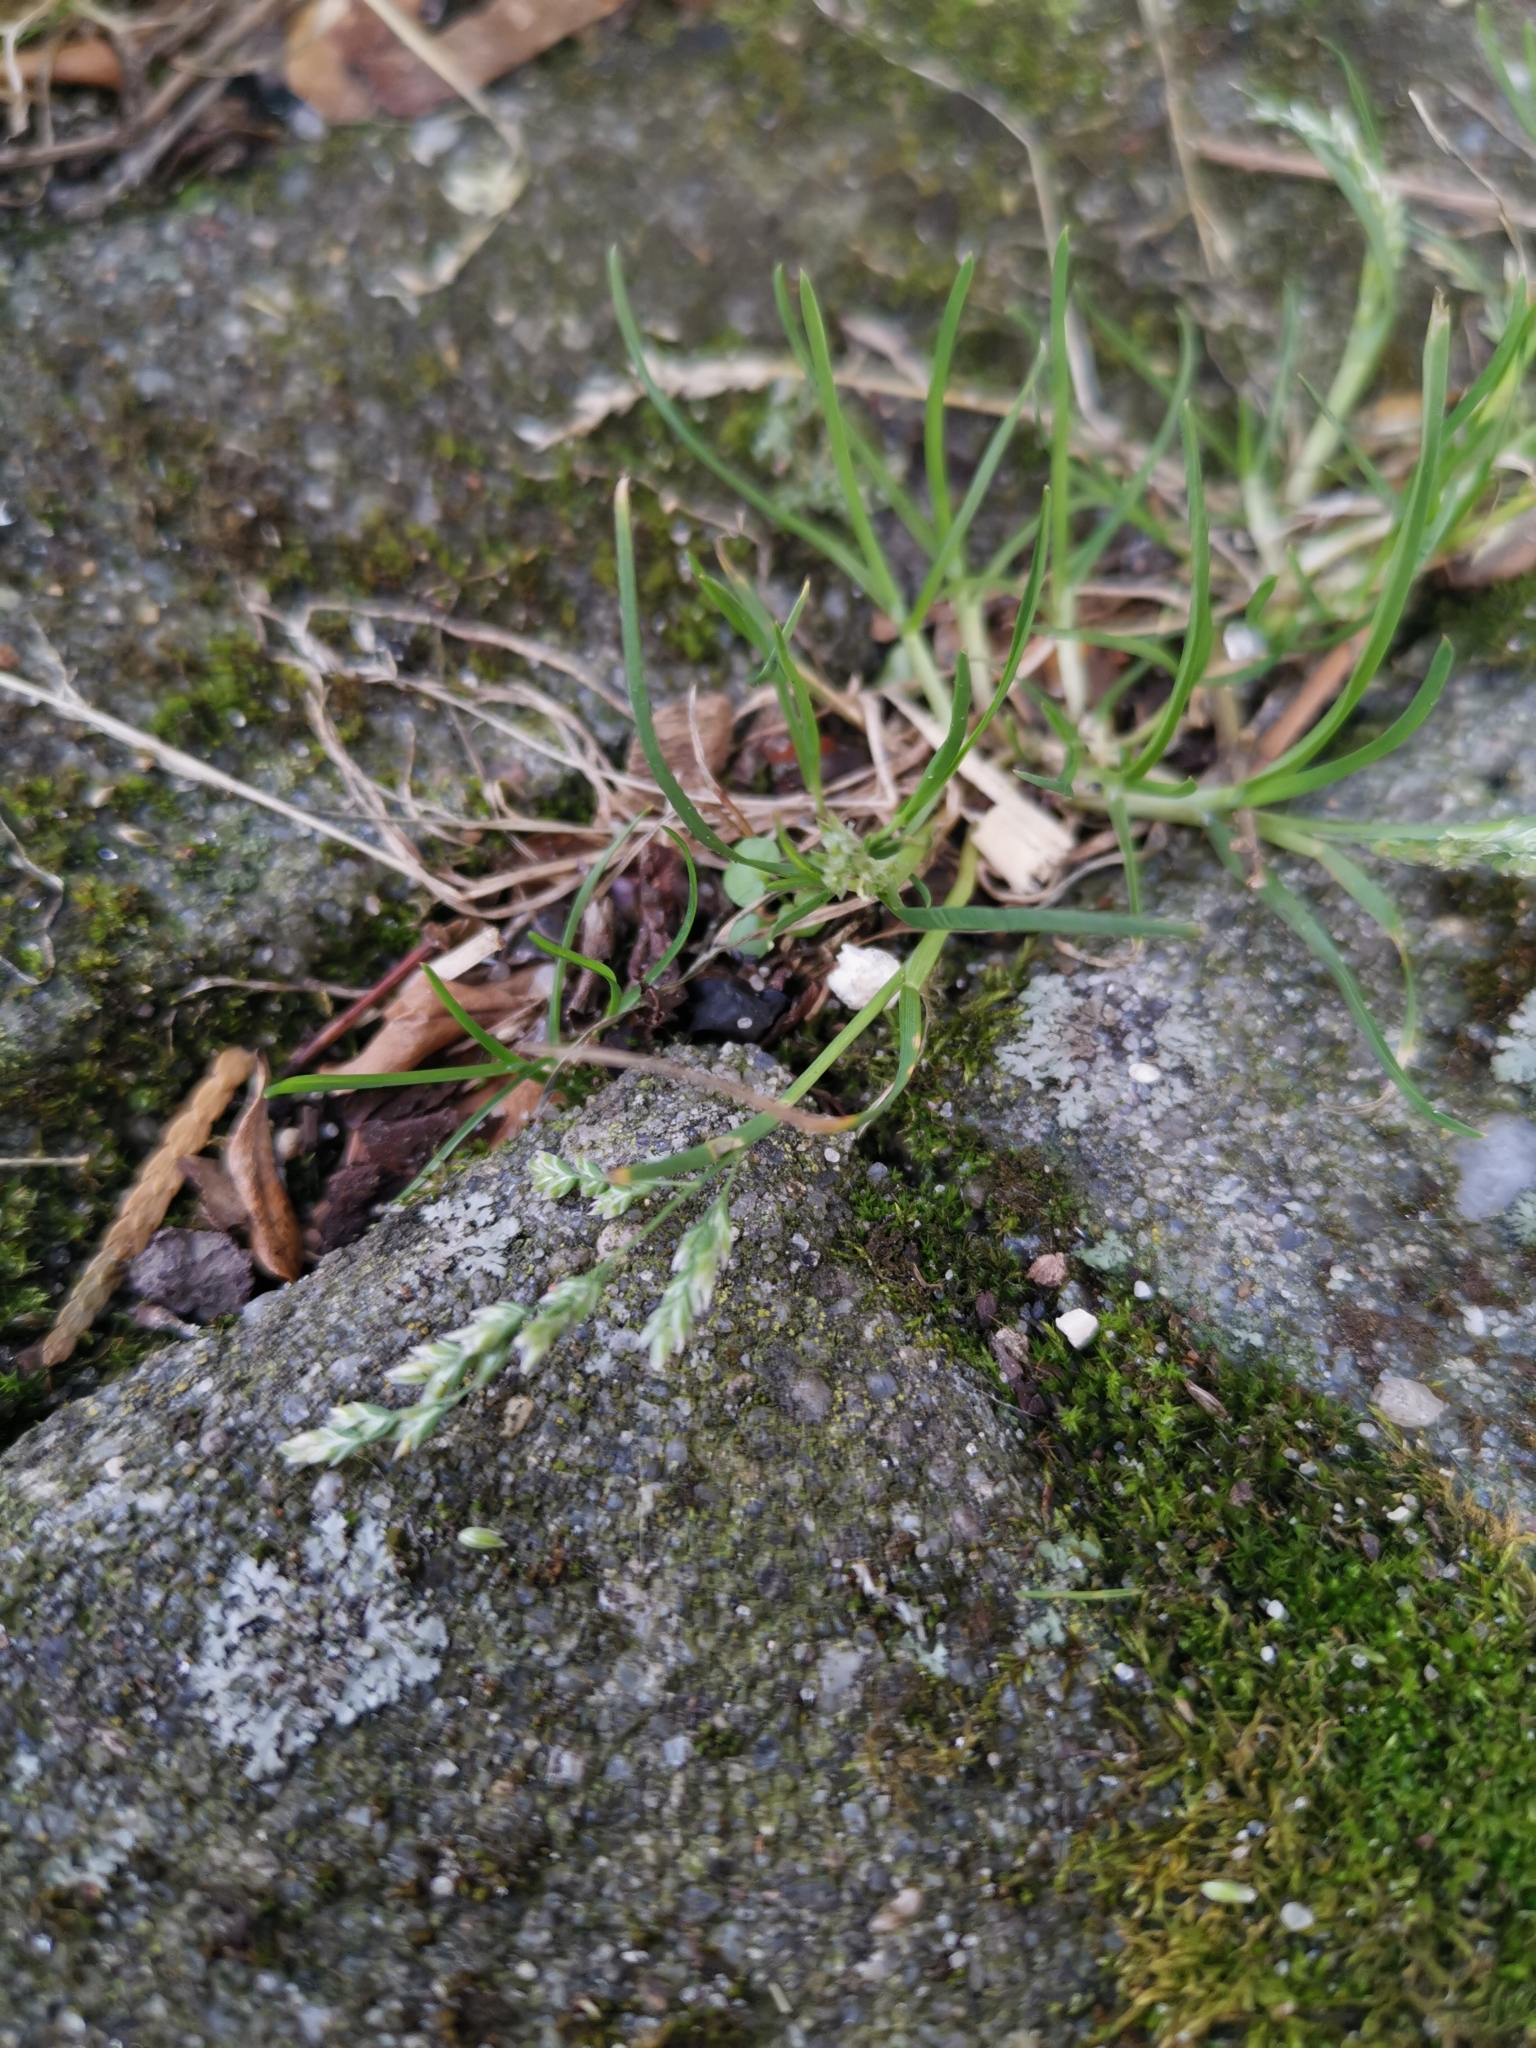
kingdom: Plantae
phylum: Tracheophyta
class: Liliopsida
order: Poales
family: Poaceae
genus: Poa
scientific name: Poa annua
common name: Annual bluegrass
